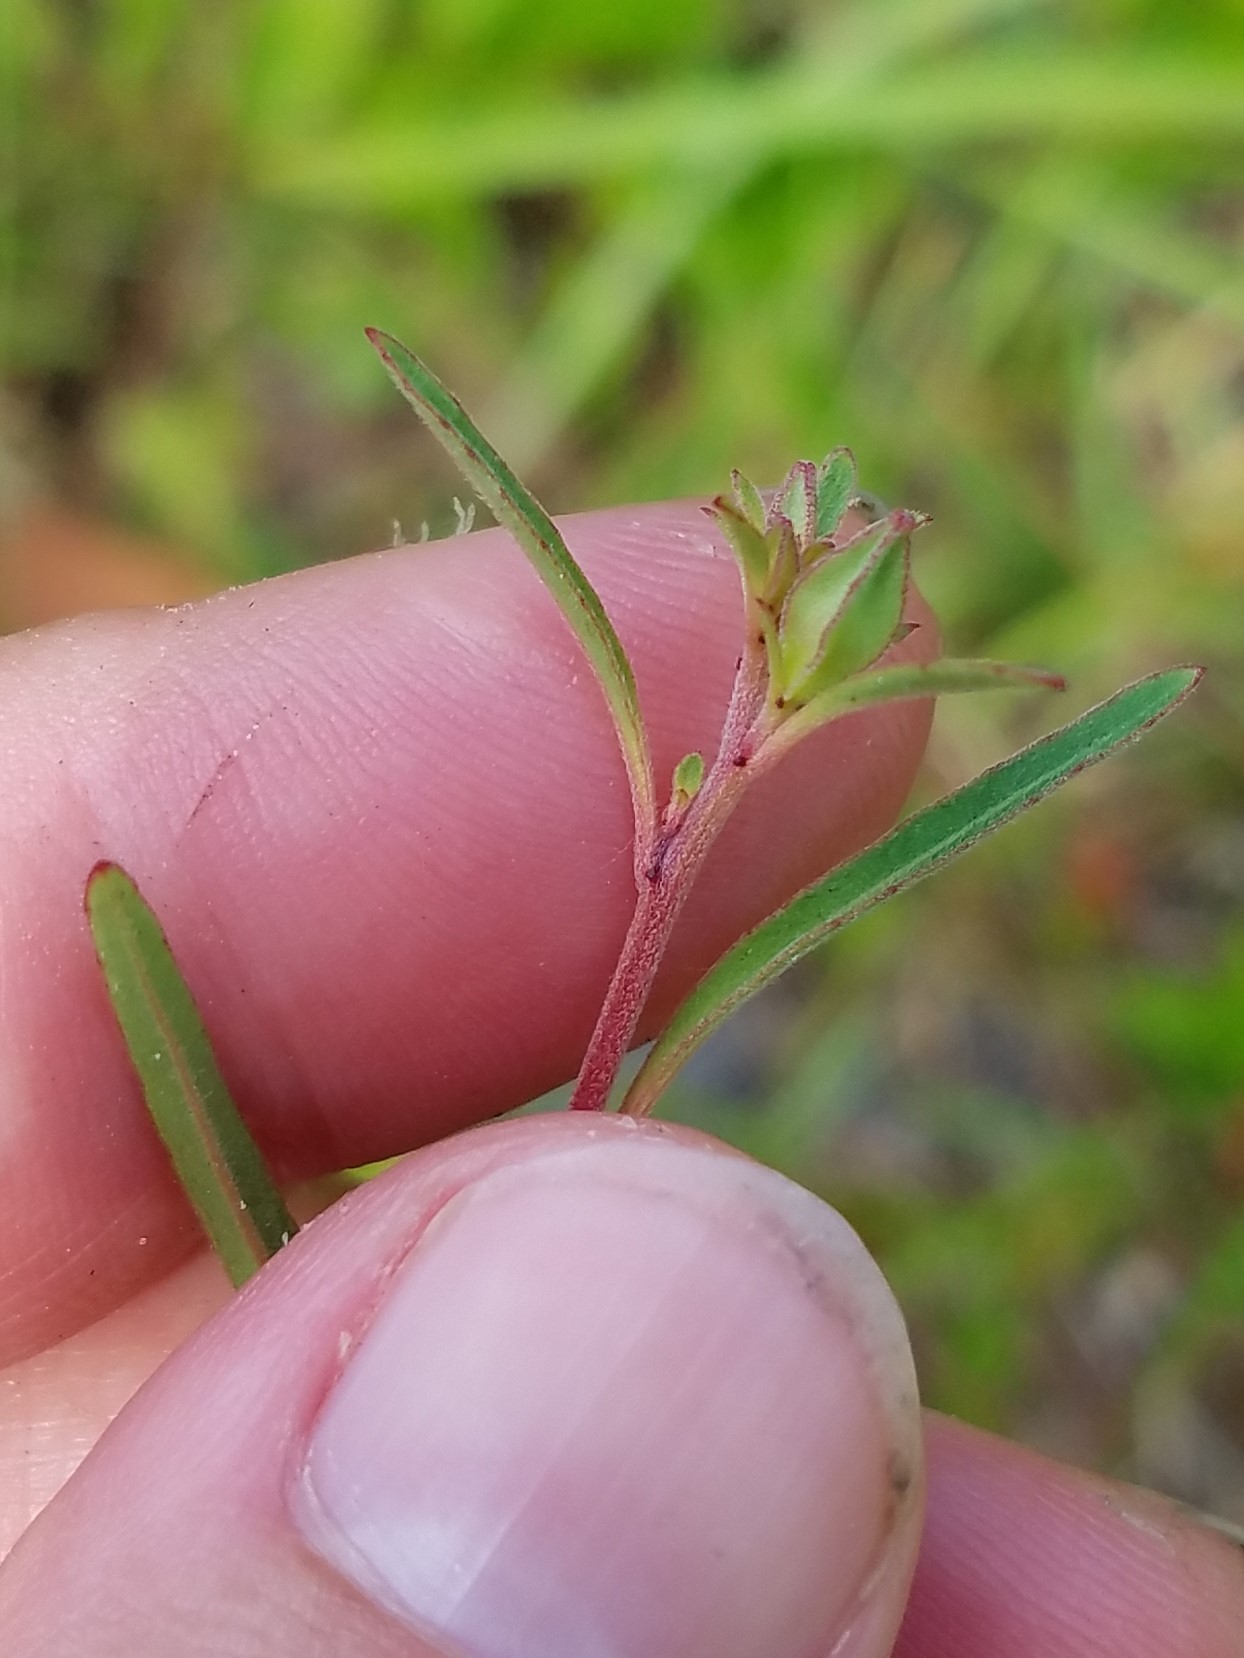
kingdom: Plantae
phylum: Tracheophyta
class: Magnoliopsida
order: Myrtales
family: Onagraceae
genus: Ludwigia
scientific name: Ludwigia maritima
